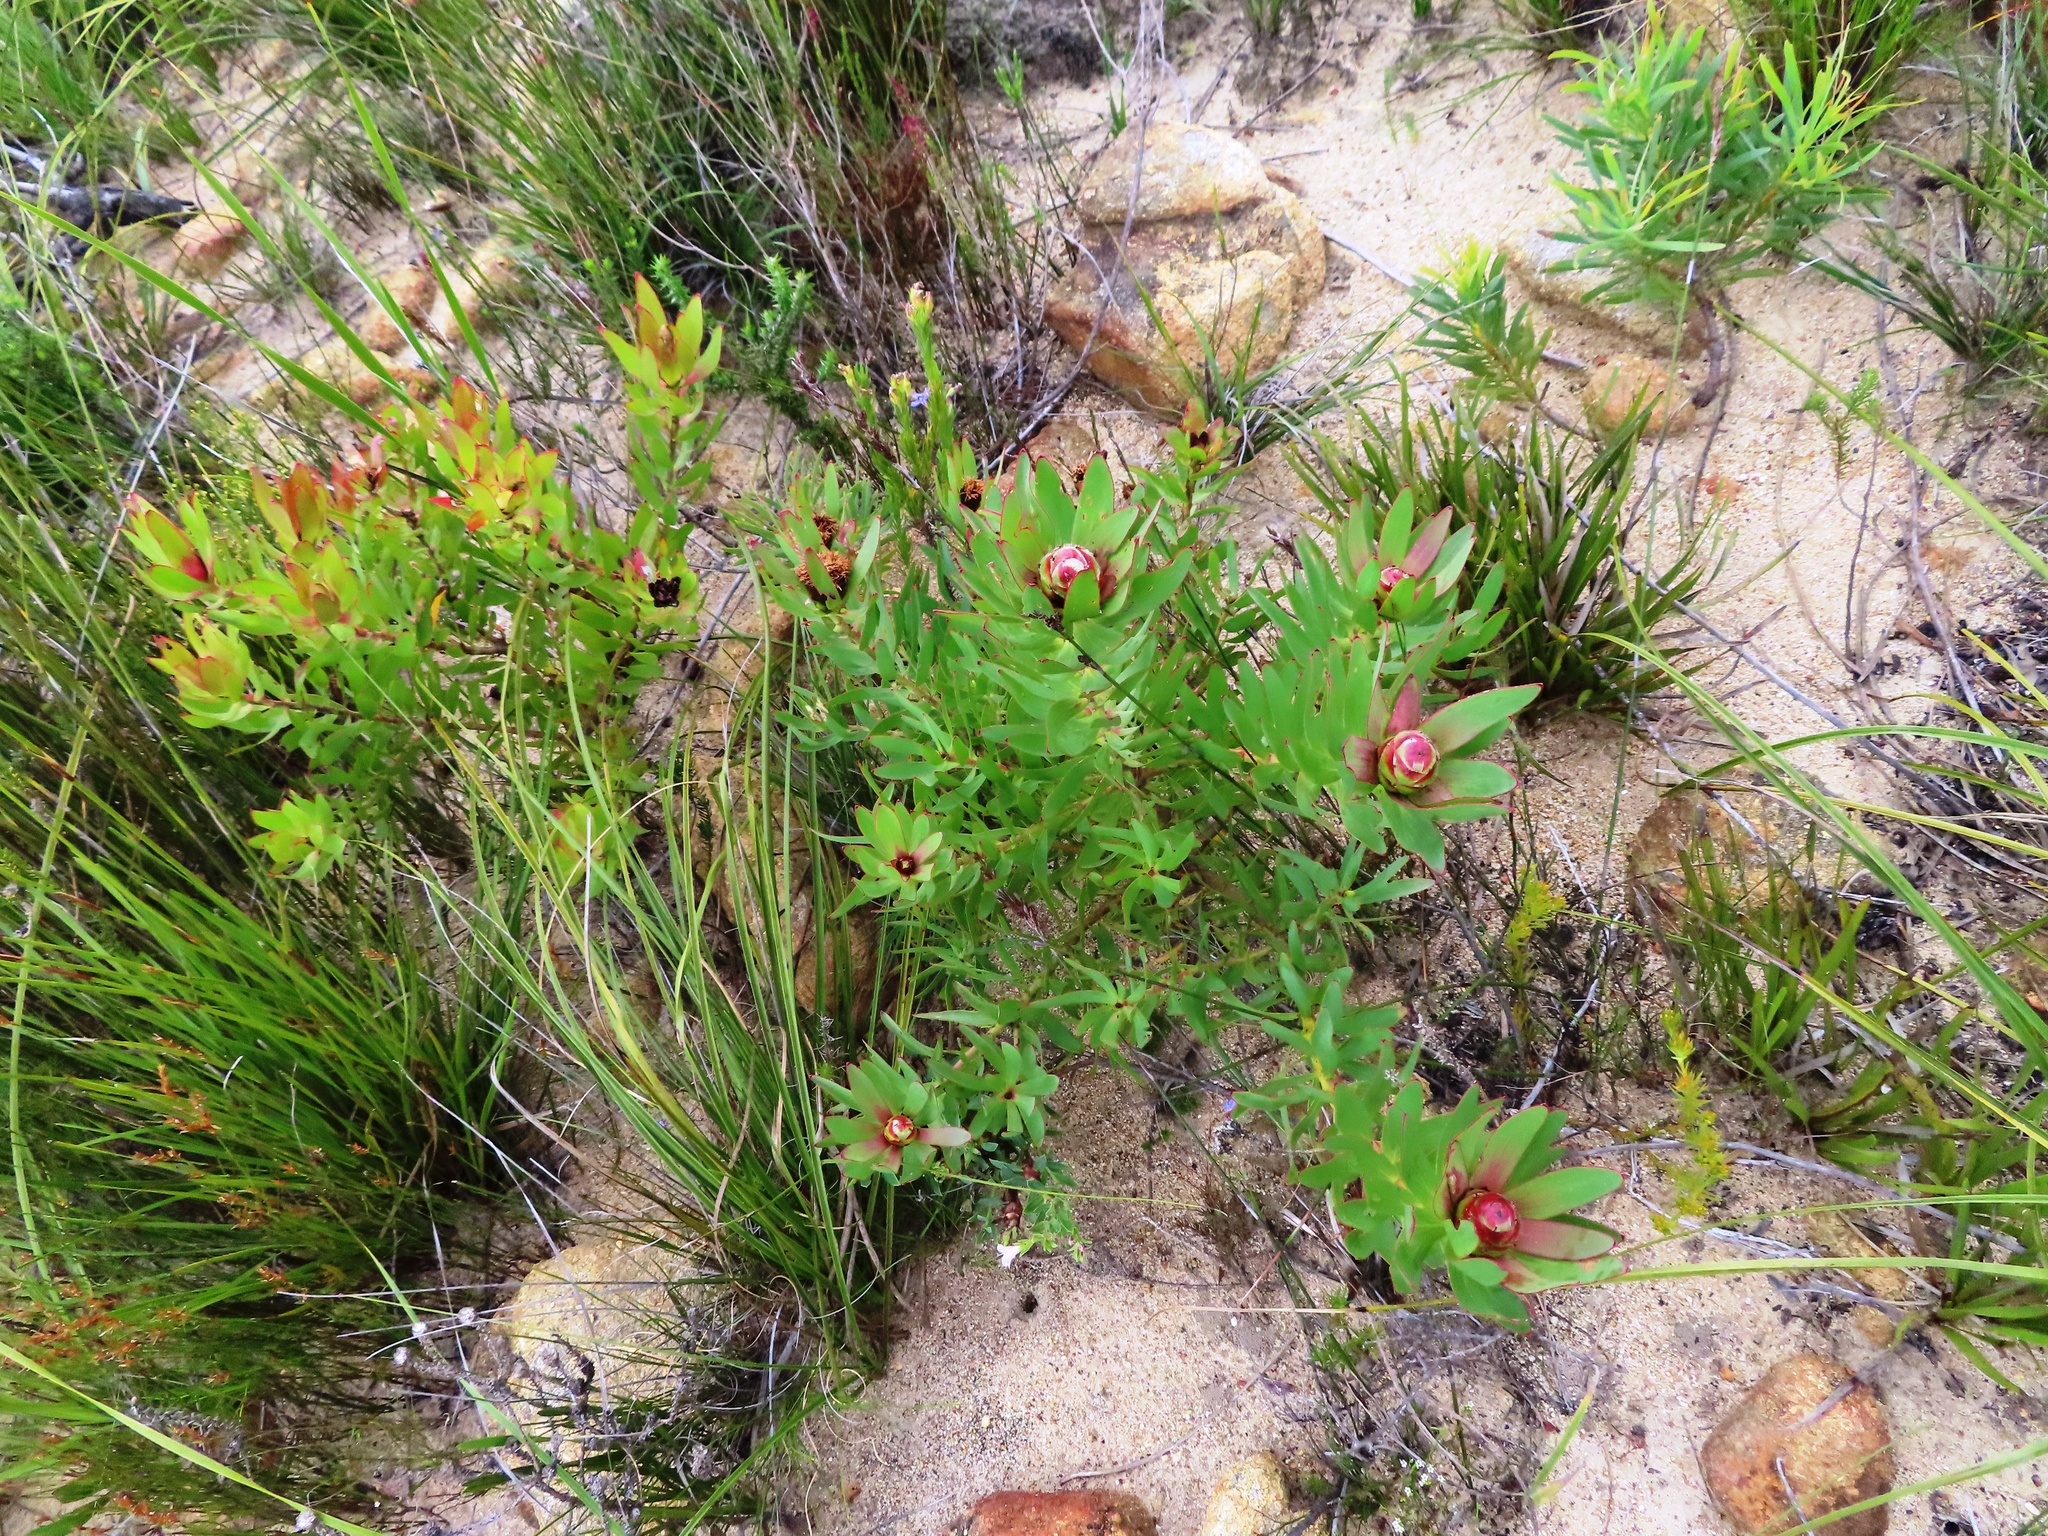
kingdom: Plantae
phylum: Tracheophyta
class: Magnoliopsida
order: Proteales
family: Proteaceae
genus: Leucadendron
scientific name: Leucadendron sessile
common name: Western sunbush
